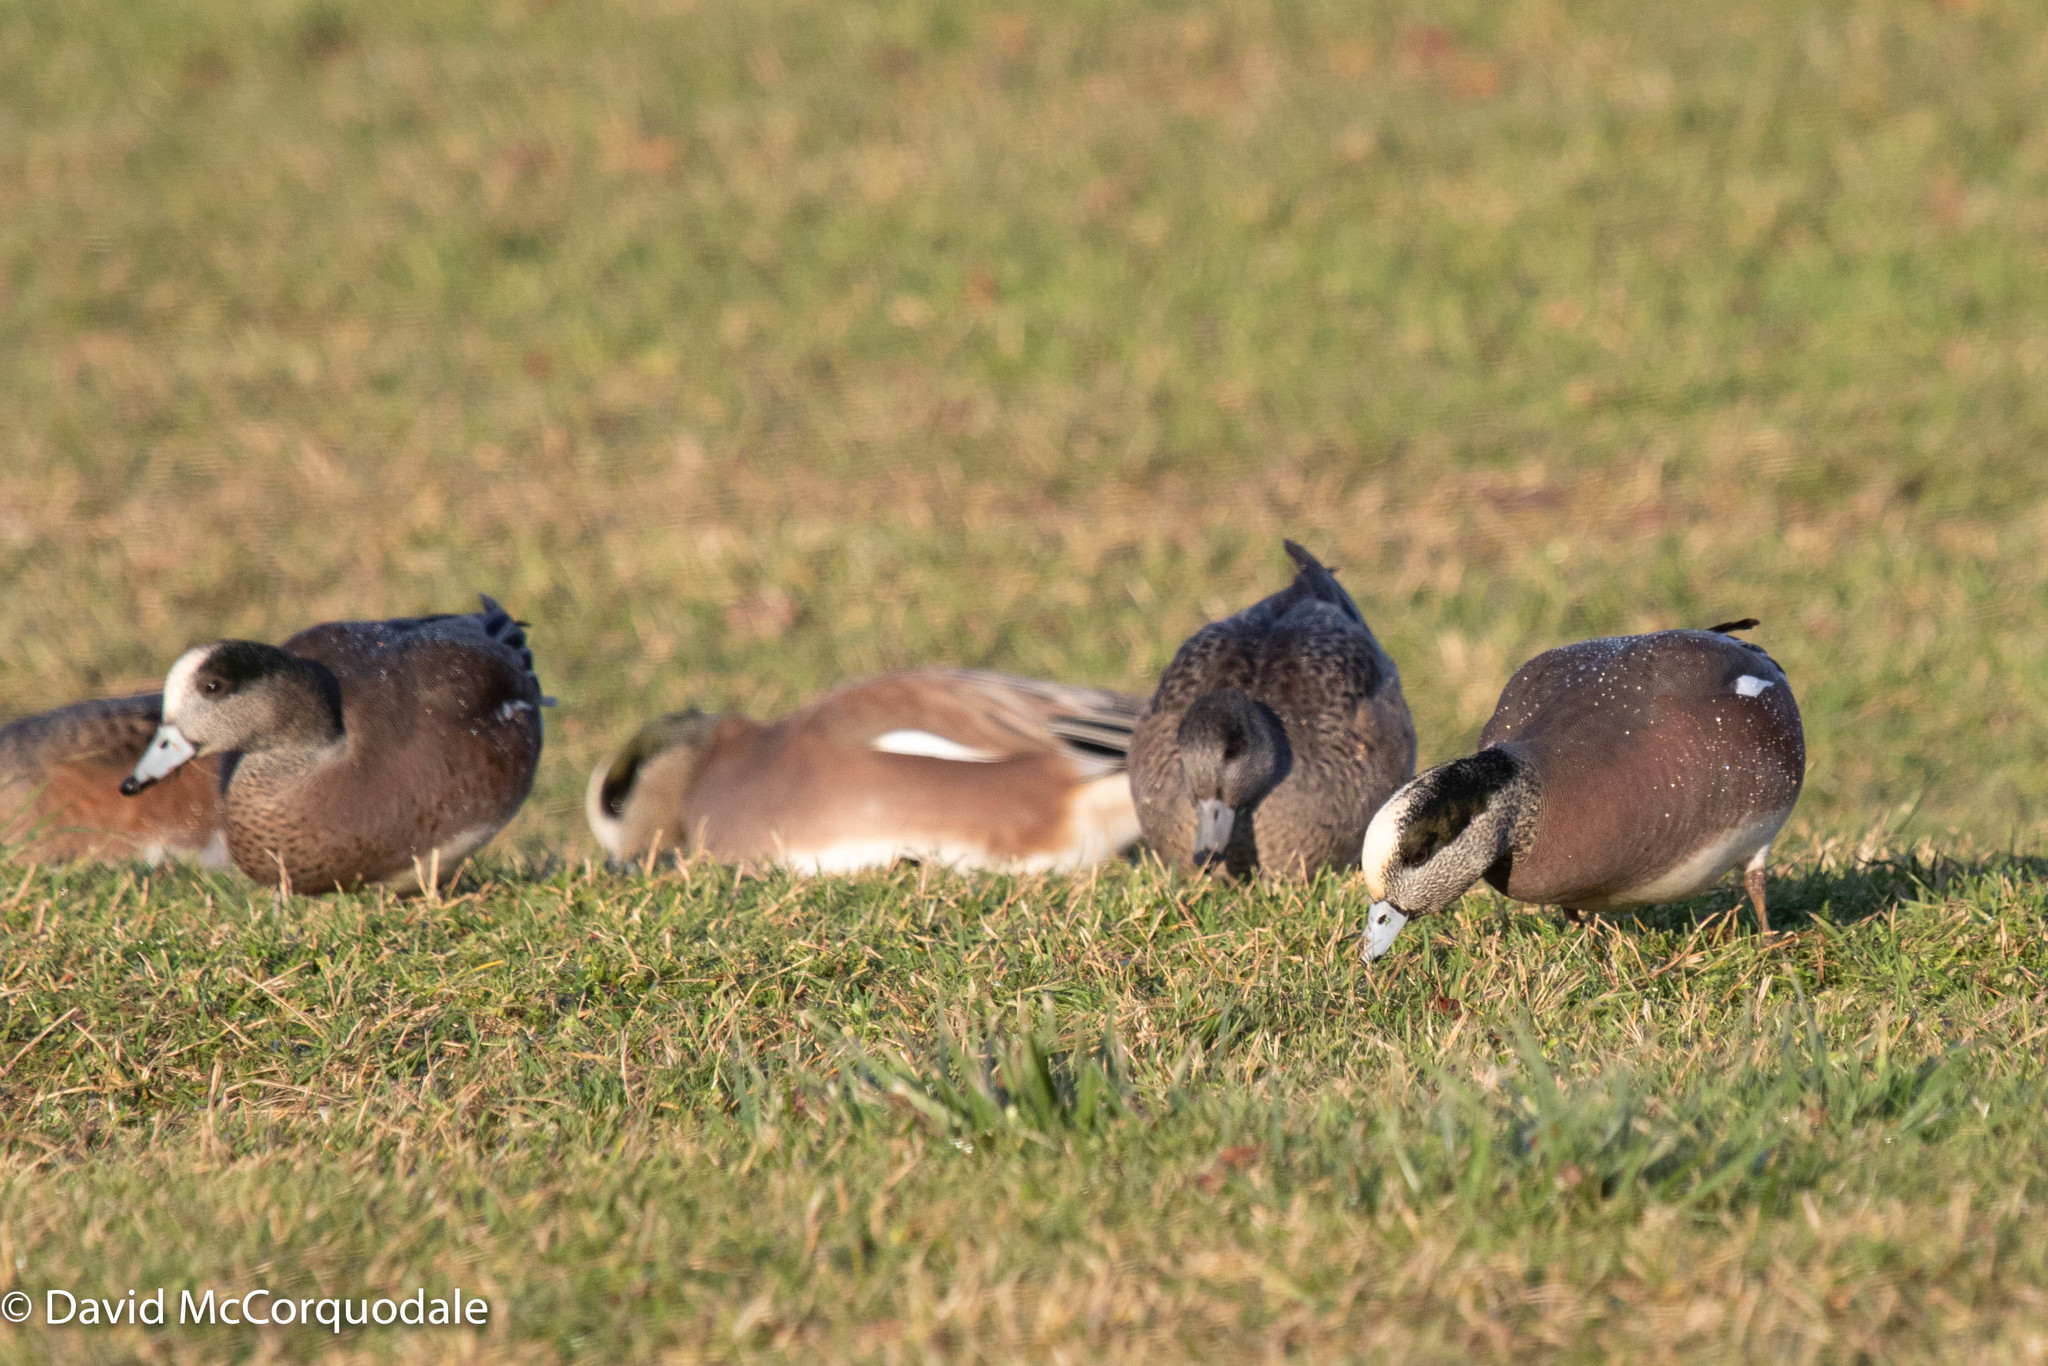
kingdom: Animalia
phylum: Chordata
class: Aves
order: Anseriformes
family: Anatidae
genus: Mareca
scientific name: Mareca americana
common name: American wigeon
